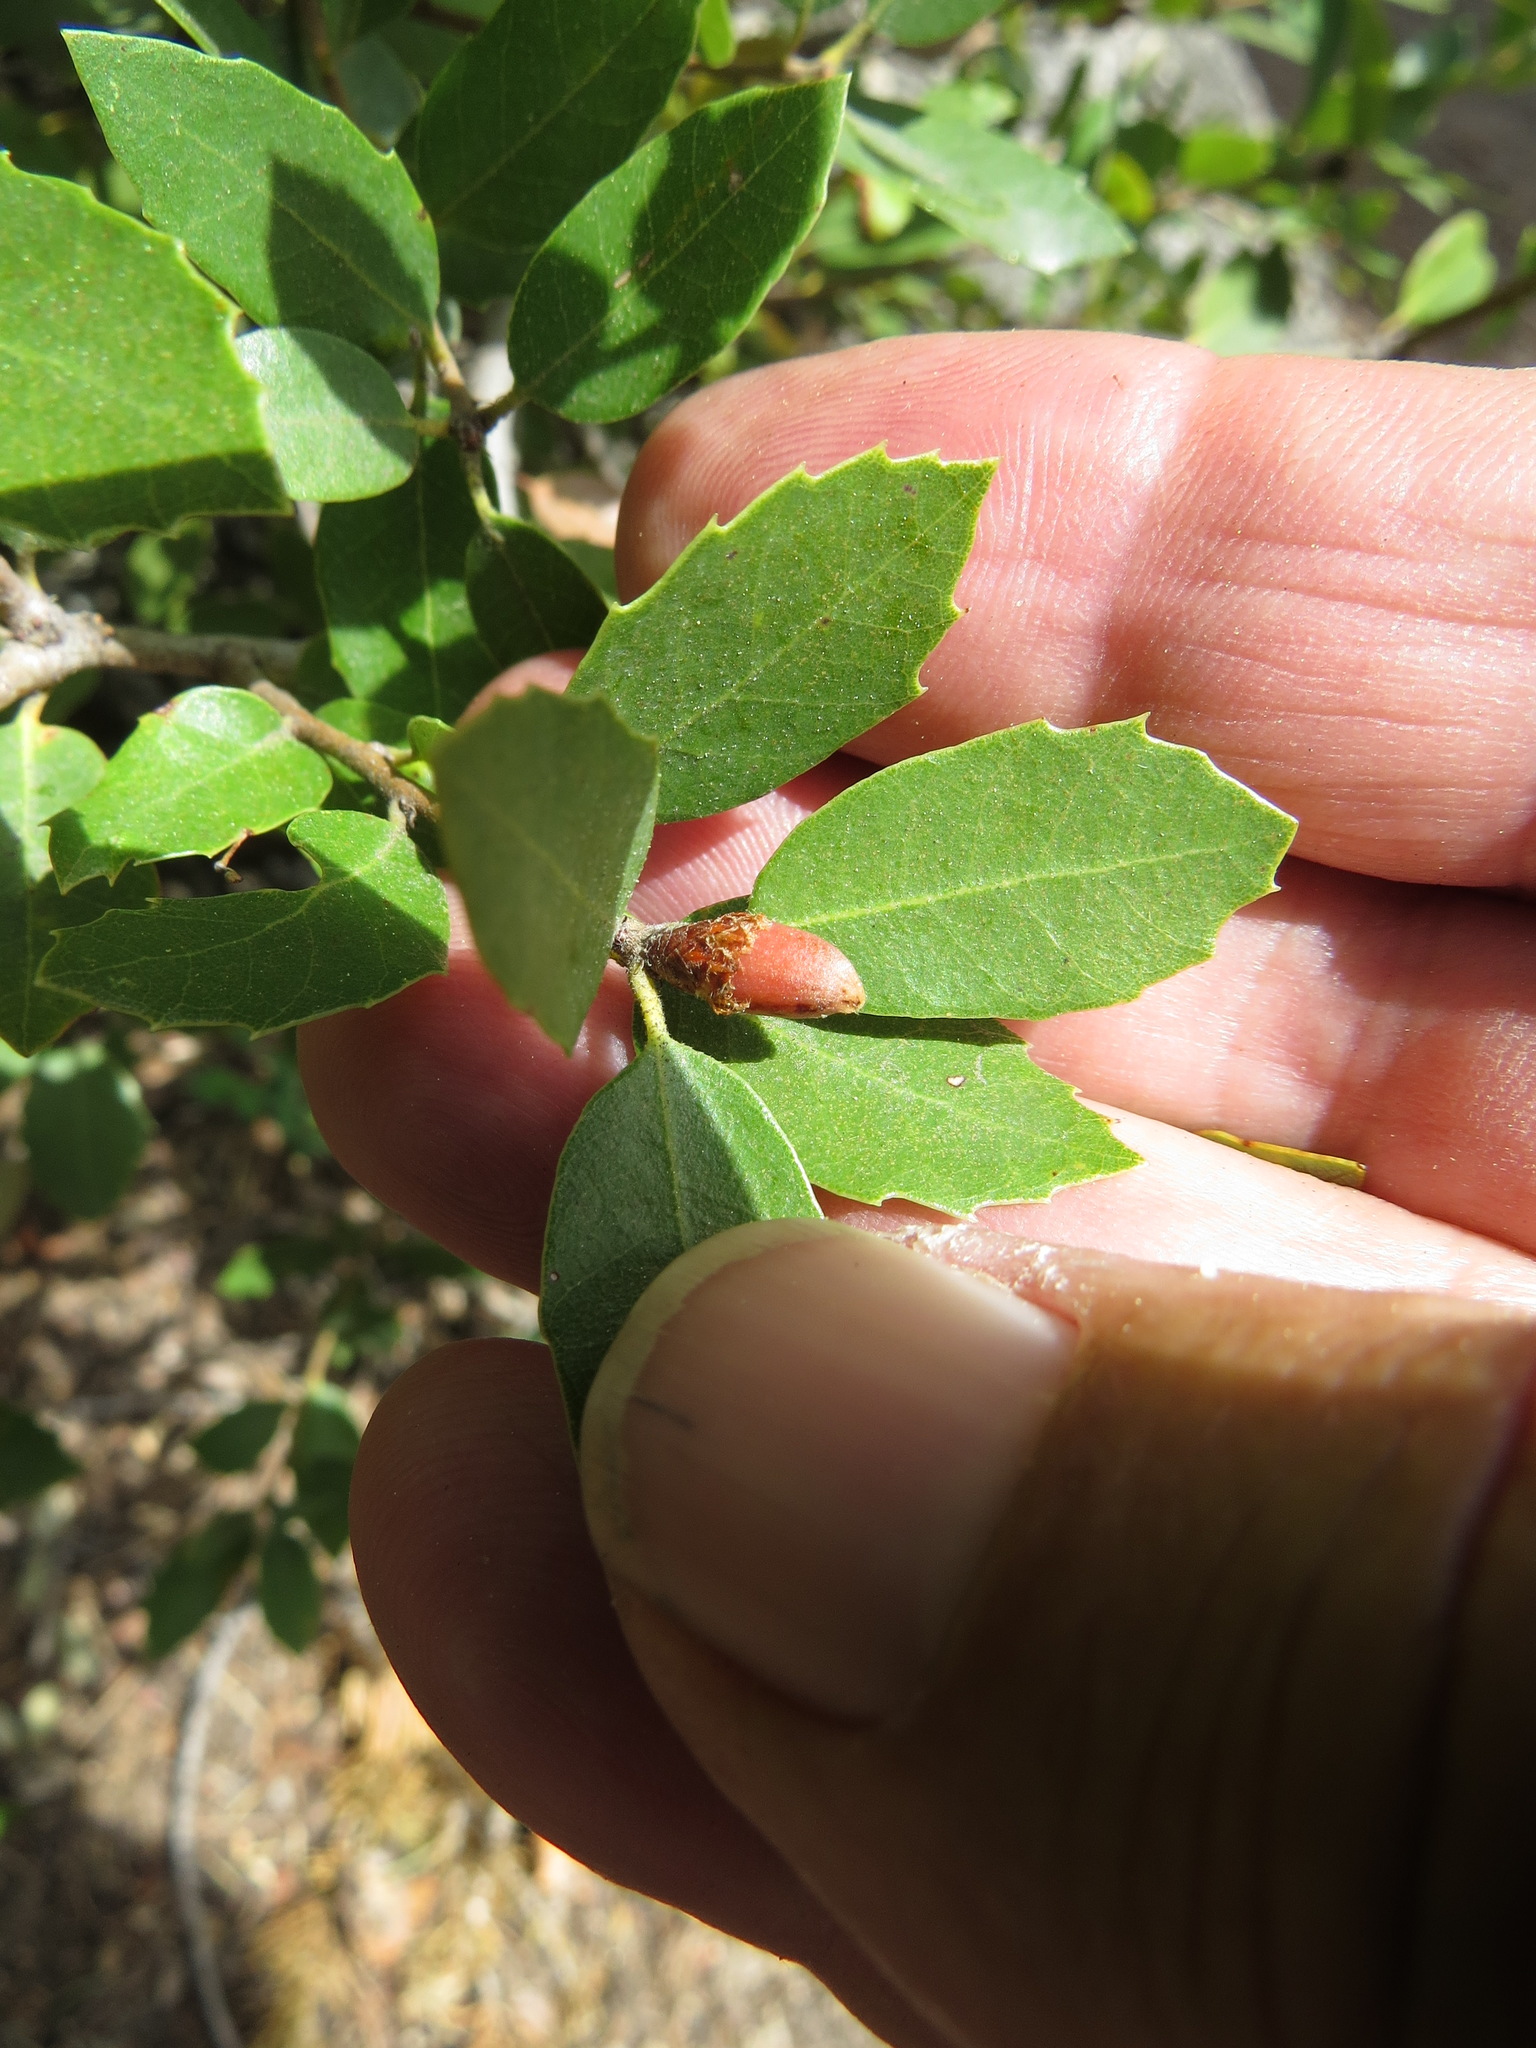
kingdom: Animalia
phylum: Arthropoda
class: Insecta
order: Hymenoptera
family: Cynipidae
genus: Andricus
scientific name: Andricus
